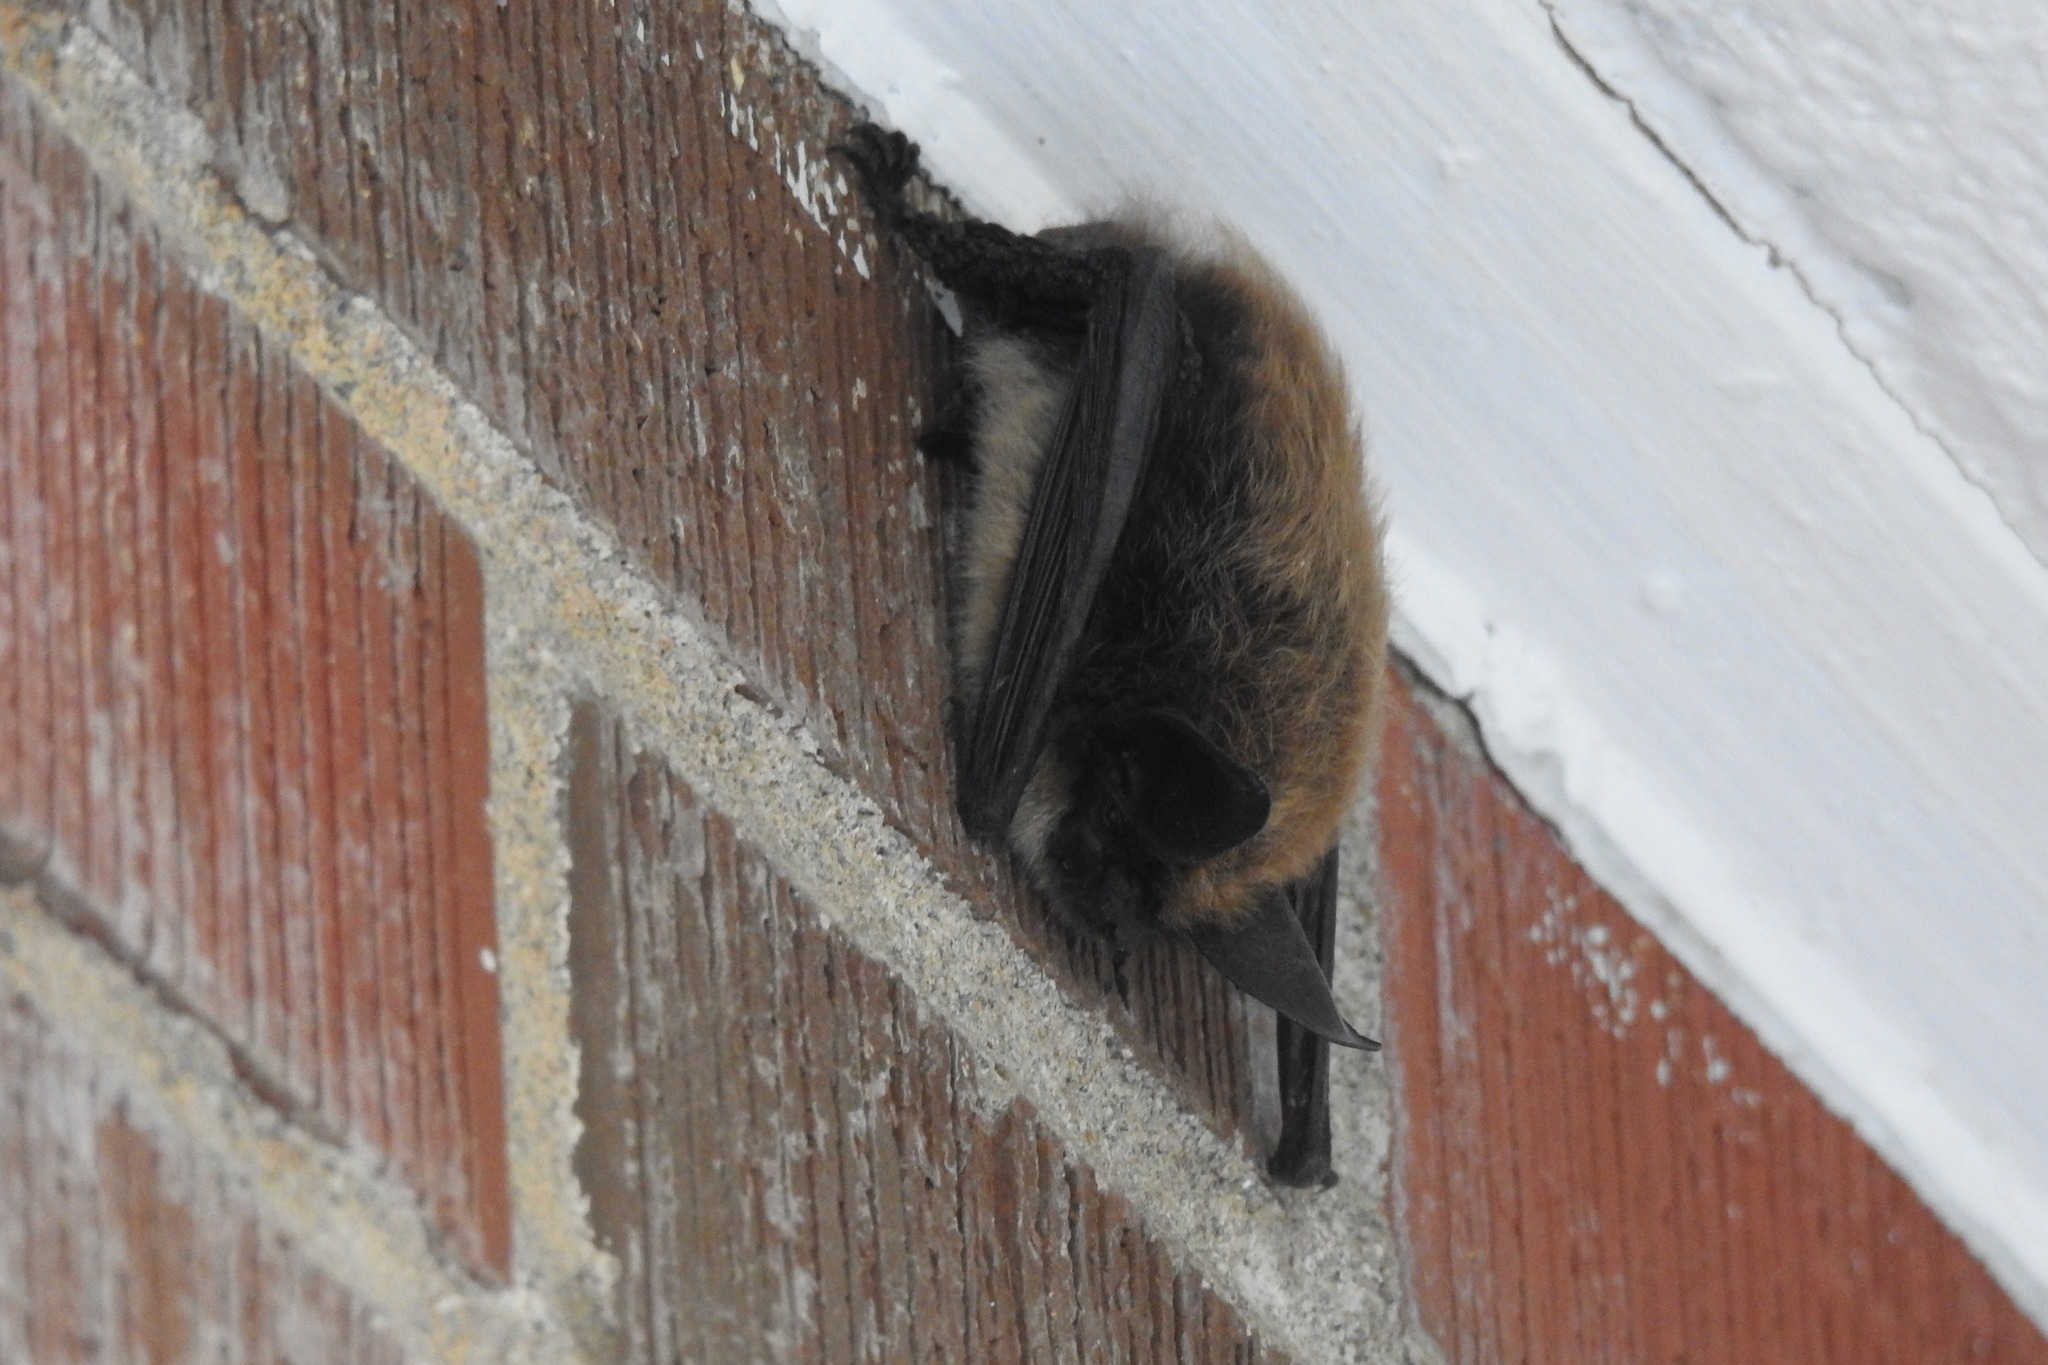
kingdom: Animalia
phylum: Chordata
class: Mammalia
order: Chiroptera
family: Vespertilionidae
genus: Myotis
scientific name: Myotis evotis
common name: Long-eared myotis
